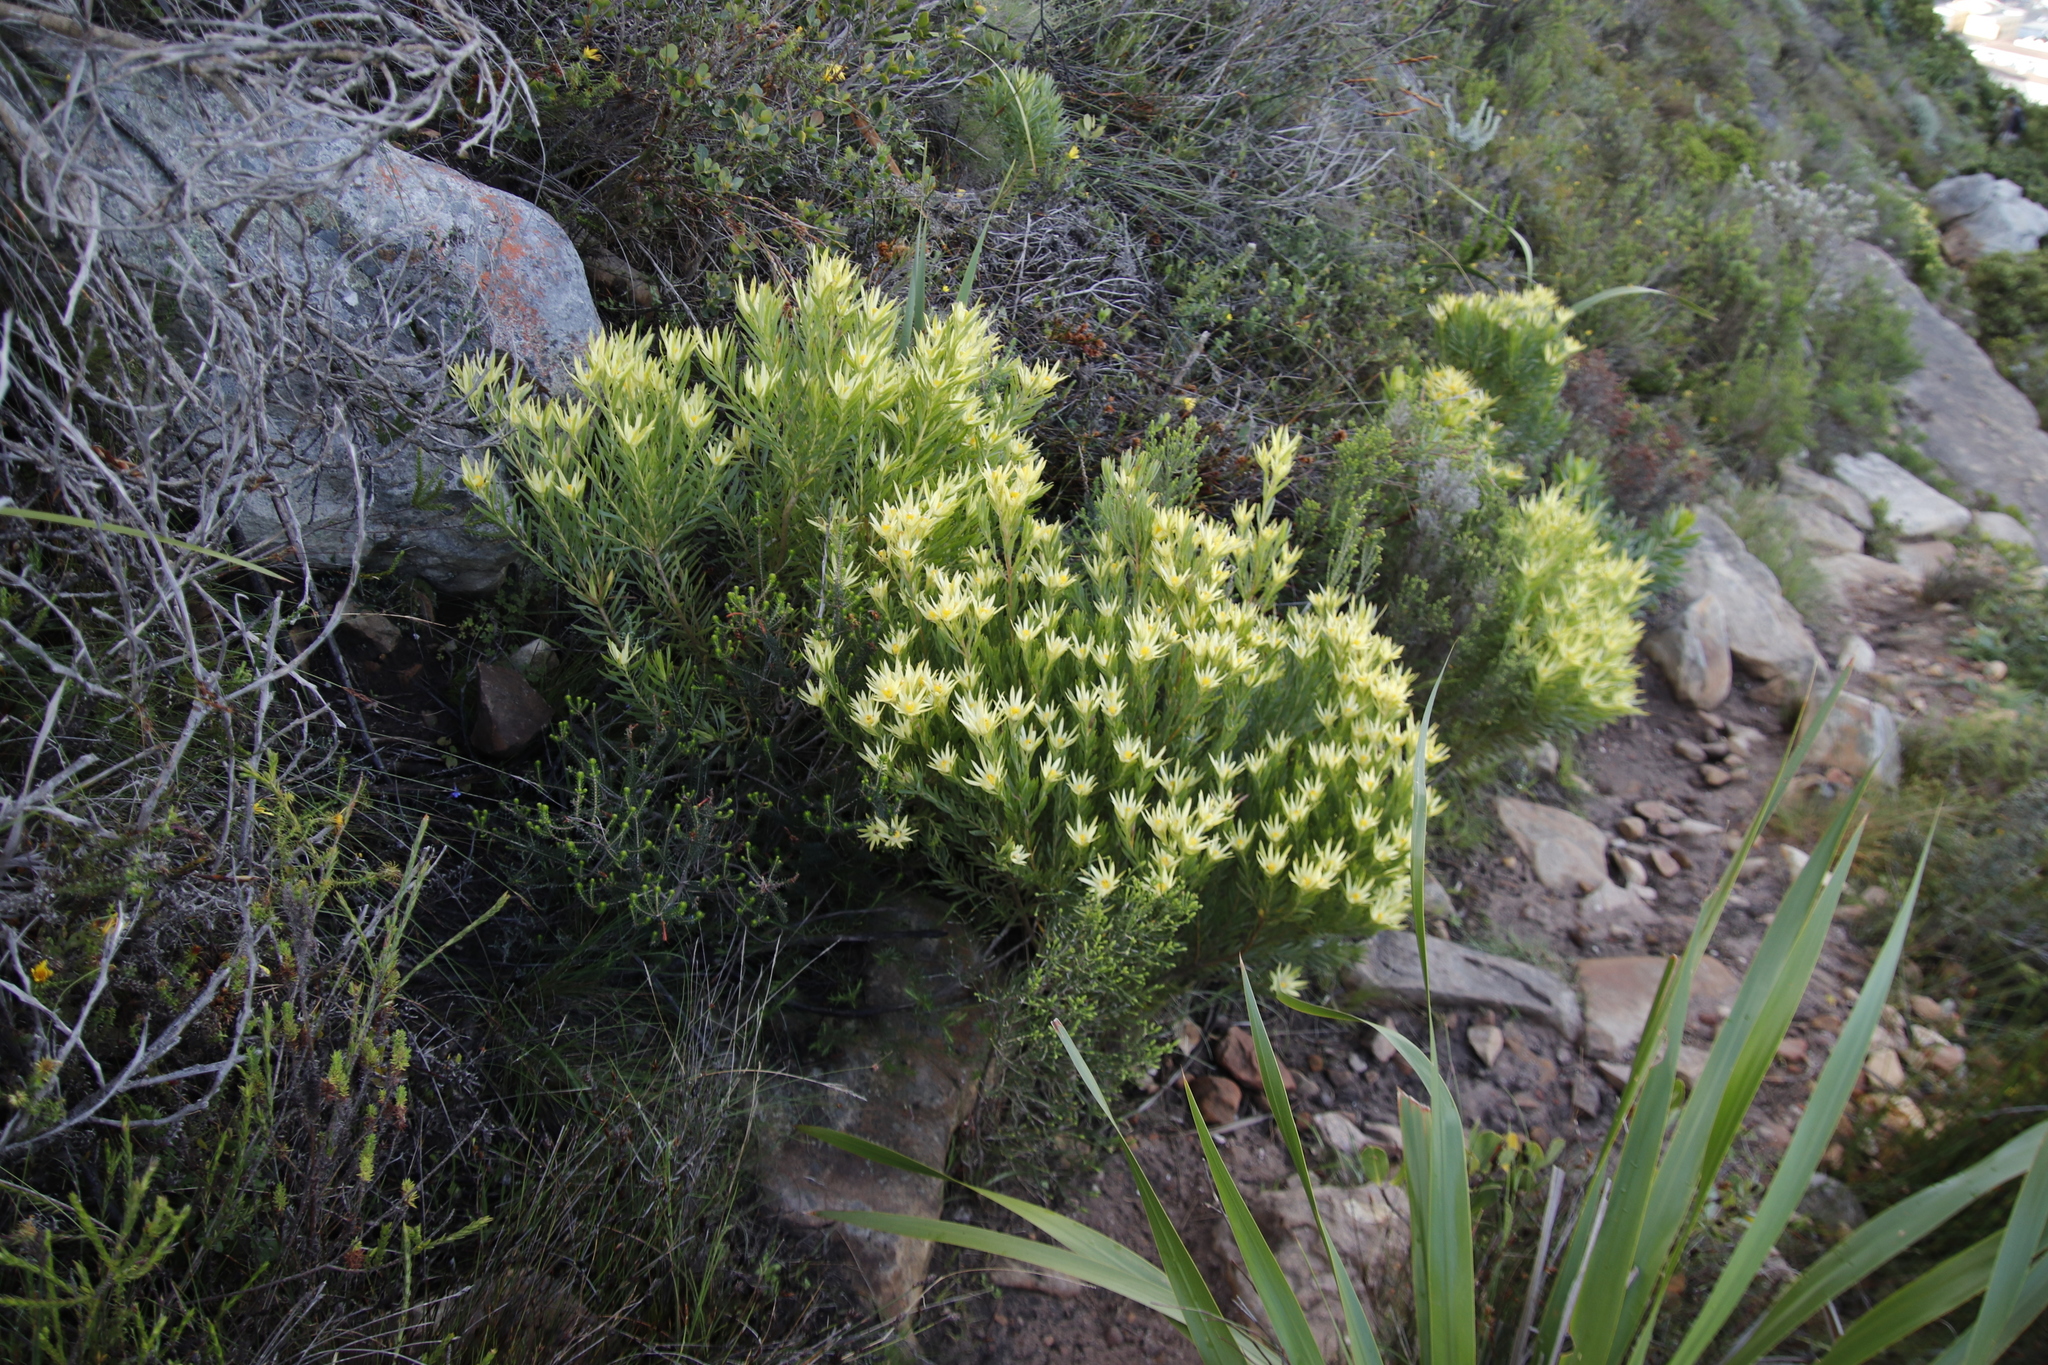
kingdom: Plantae
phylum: Tracheophyta
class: Magnoliopsida
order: Proteales
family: Proteaceae
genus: Leucadendron
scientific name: Leucadendron xanthoconus
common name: Sickle-leaf conebush
